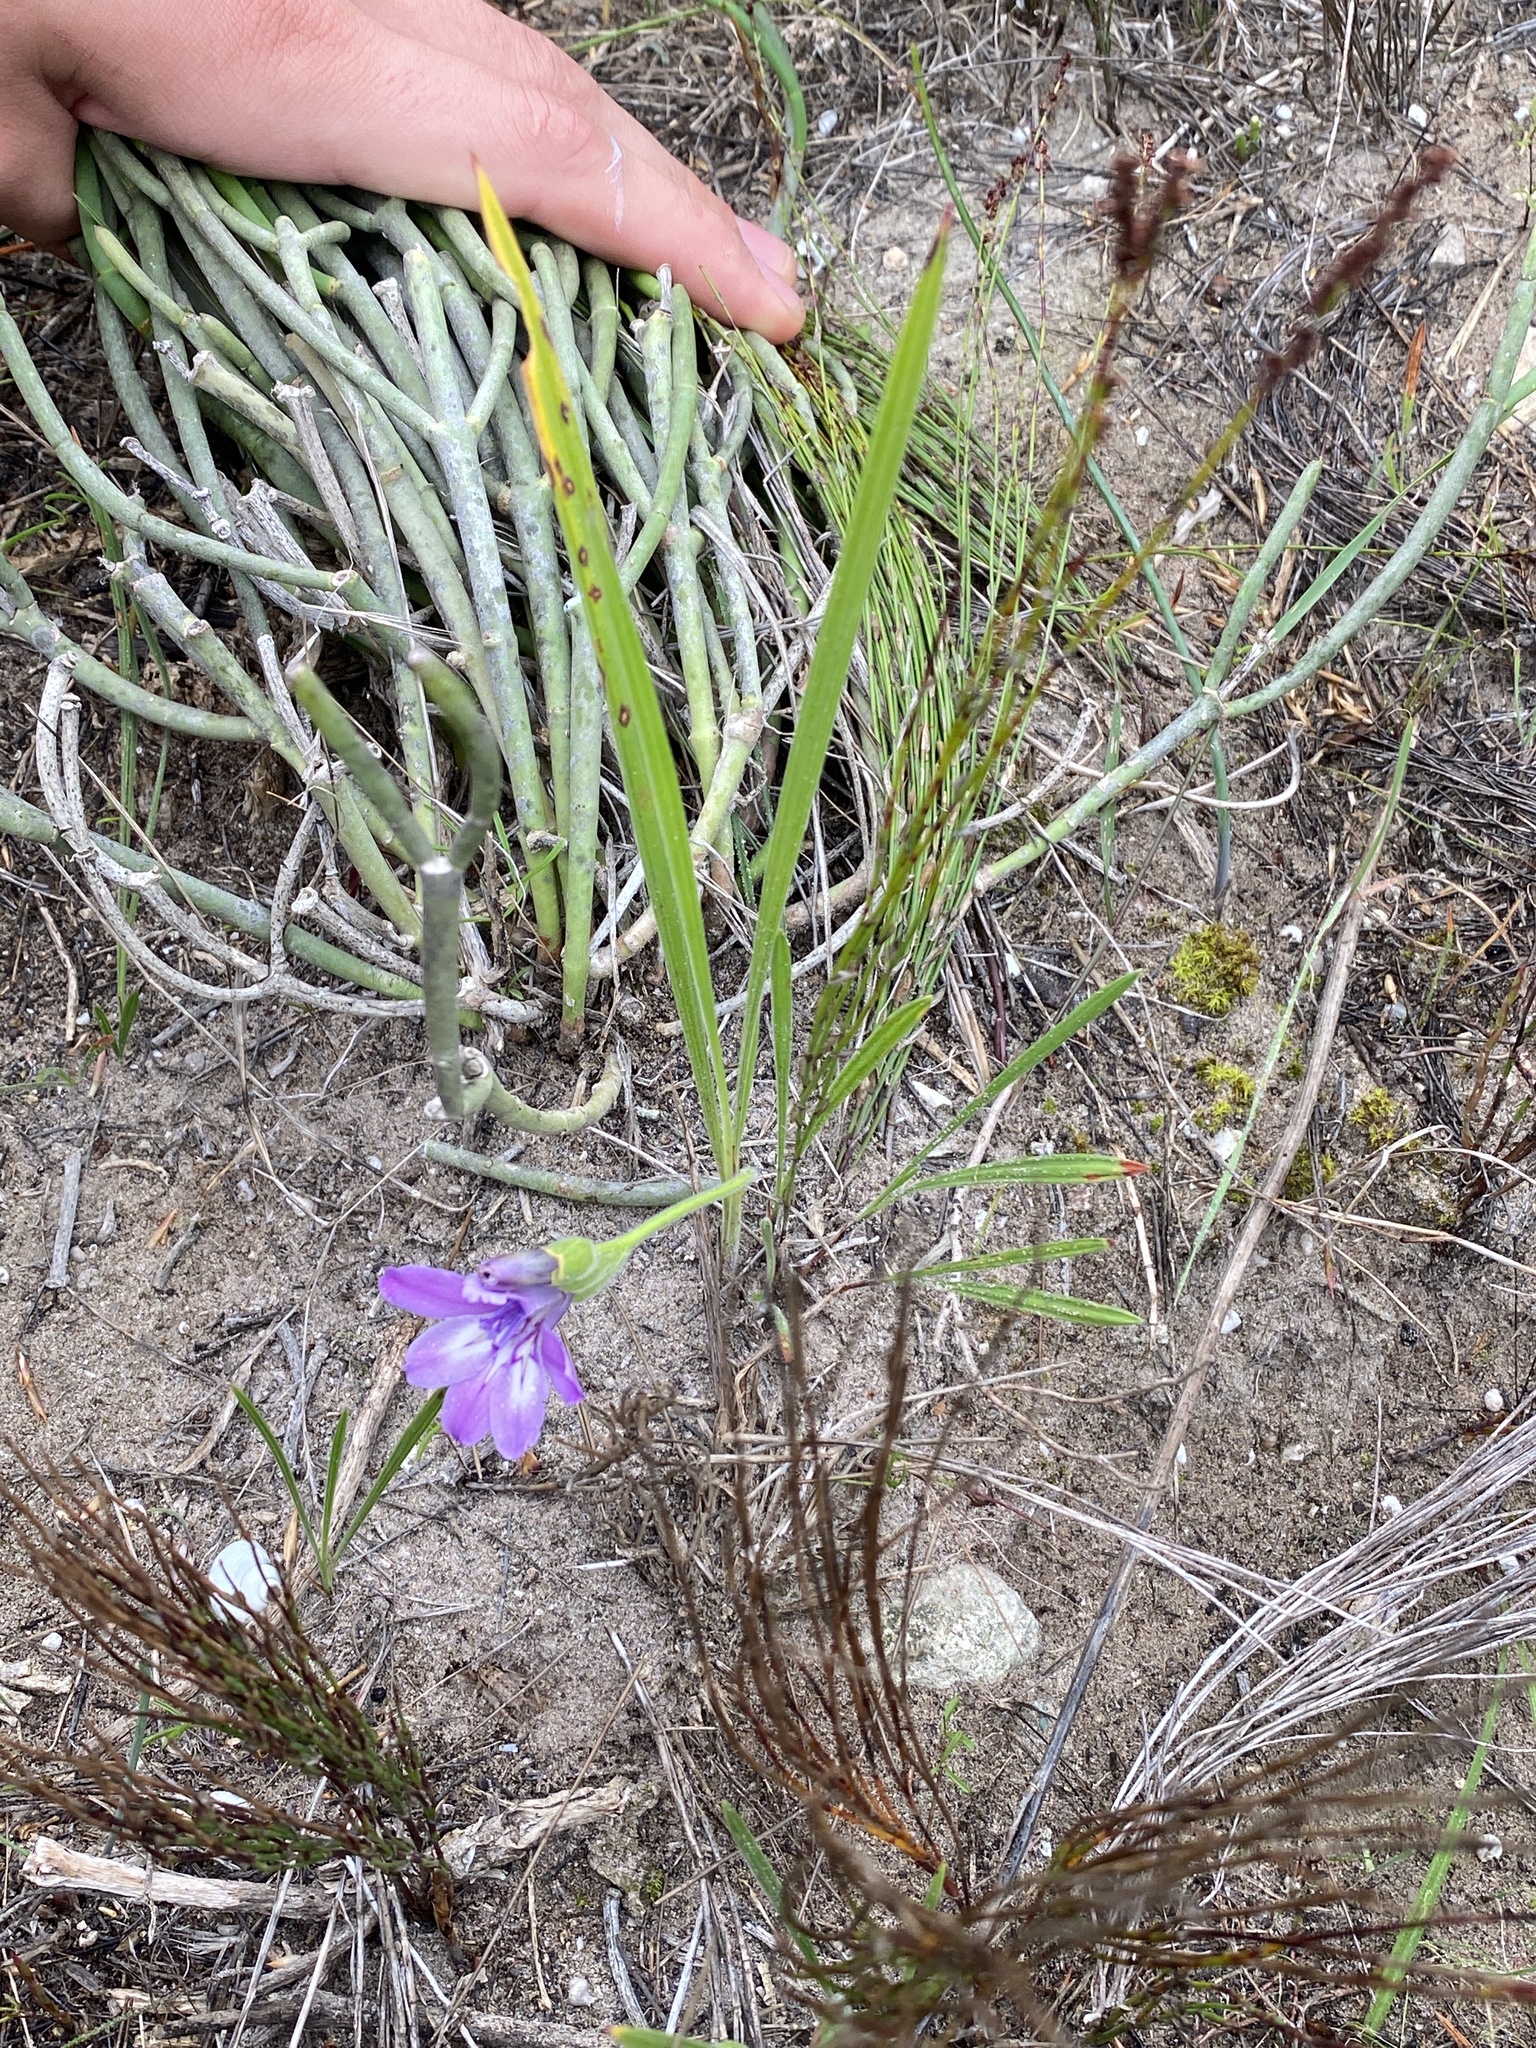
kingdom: Plantae
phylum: Tracheophyta
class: Liliopsida
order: Asparagales
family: Iridaceae
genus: Babiana
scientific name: Babiana ambigua
